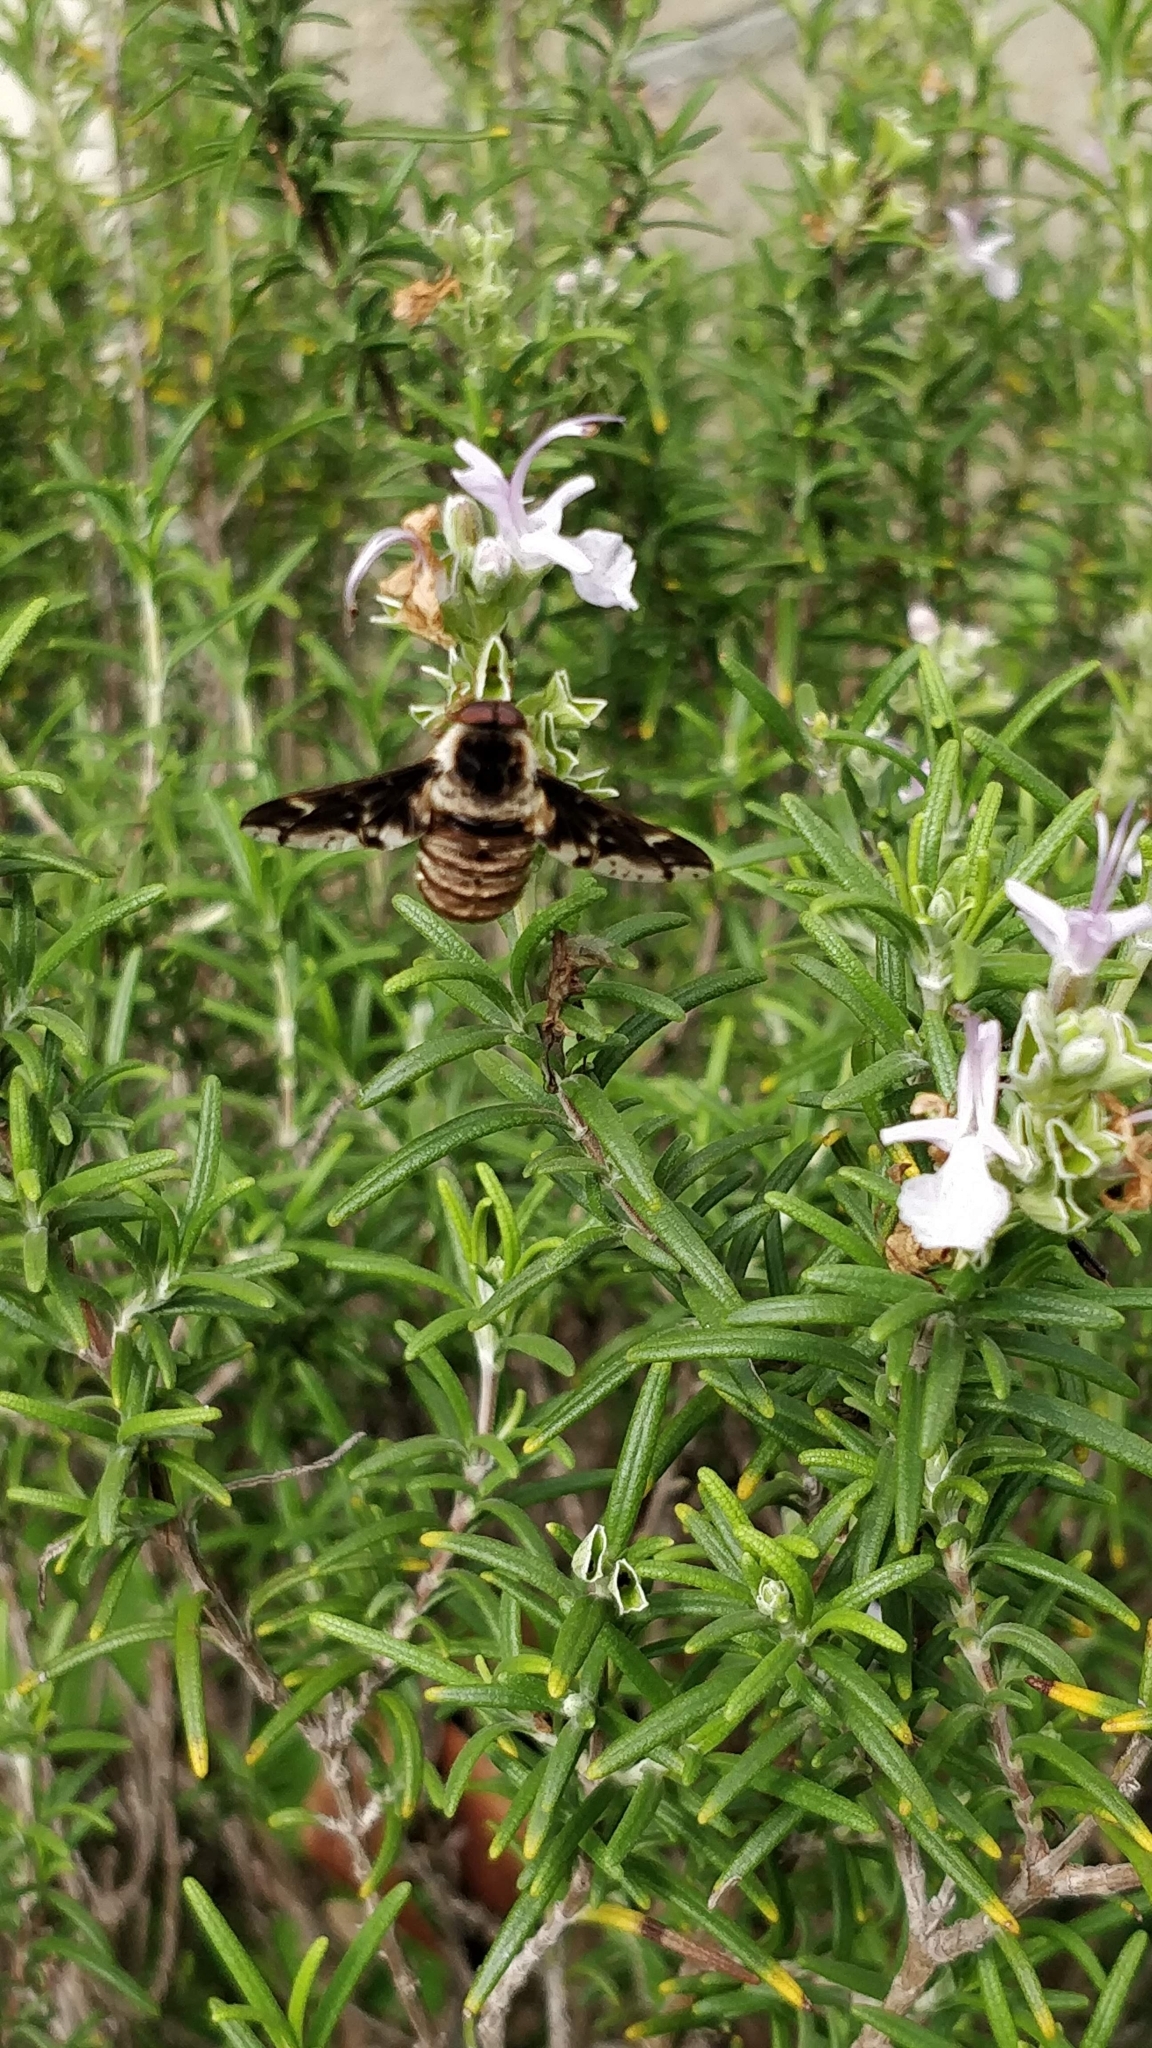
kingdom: Animalia
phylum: Arthropoda
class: Insecta
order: Diptera
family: Nemestrinidae
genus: Atriadops
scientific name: Atriadops
